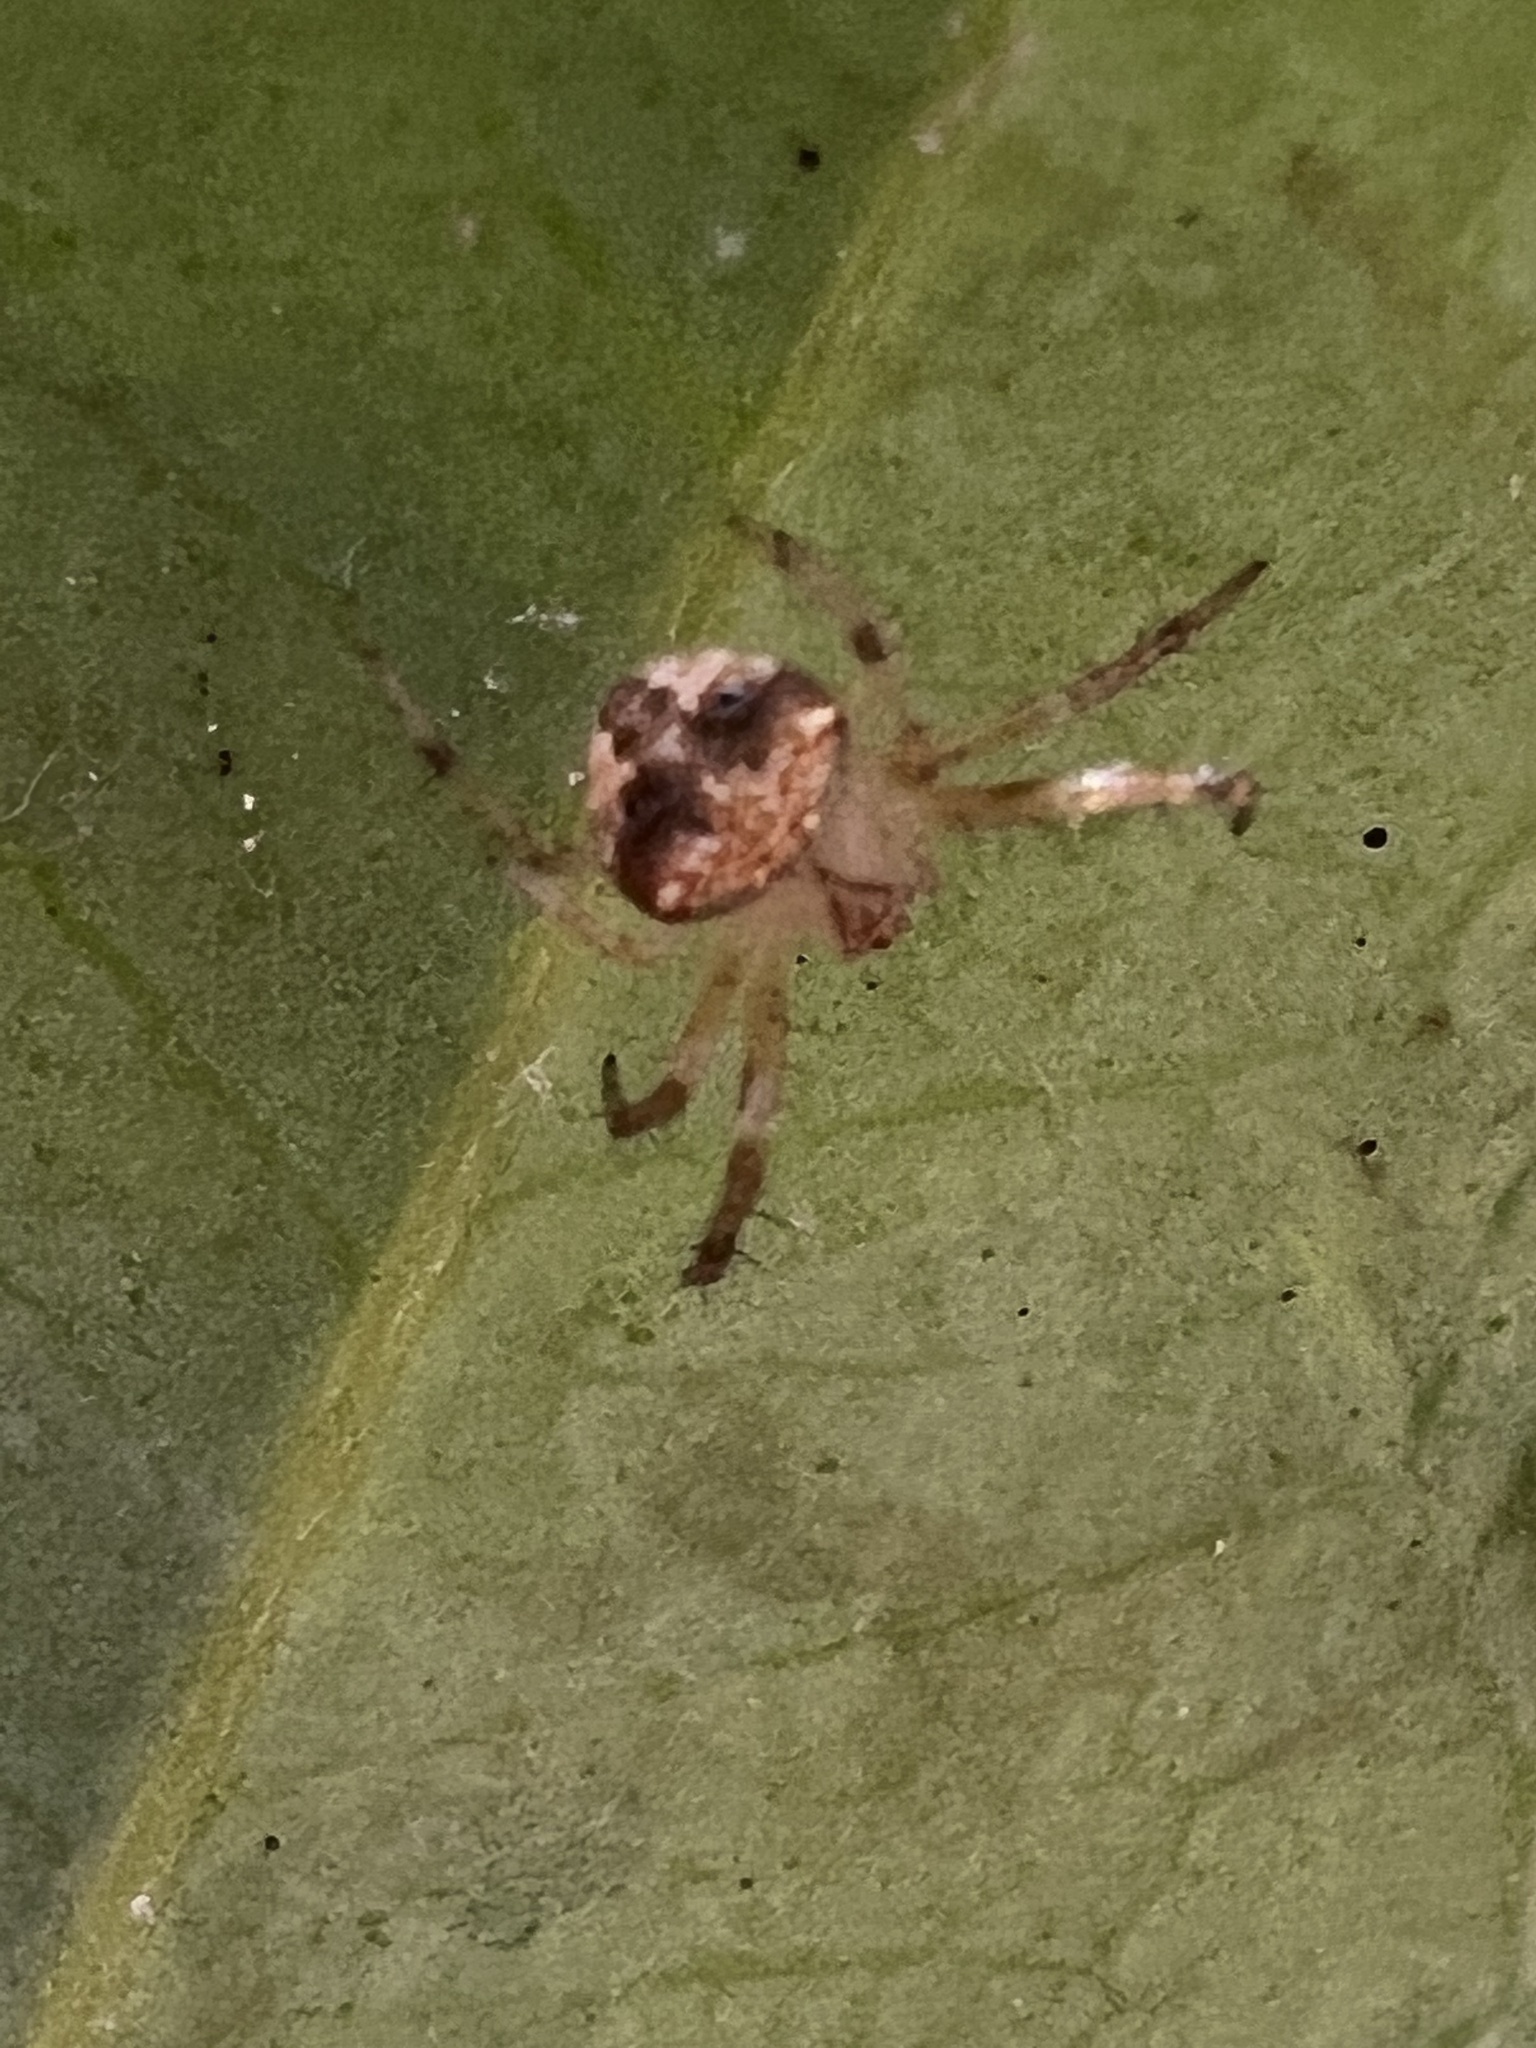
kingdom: Animalia
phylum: Arthropoda
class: Arachnida
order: Araneae
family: Araneidae
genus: Araneus
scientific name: Araneus miniatus
